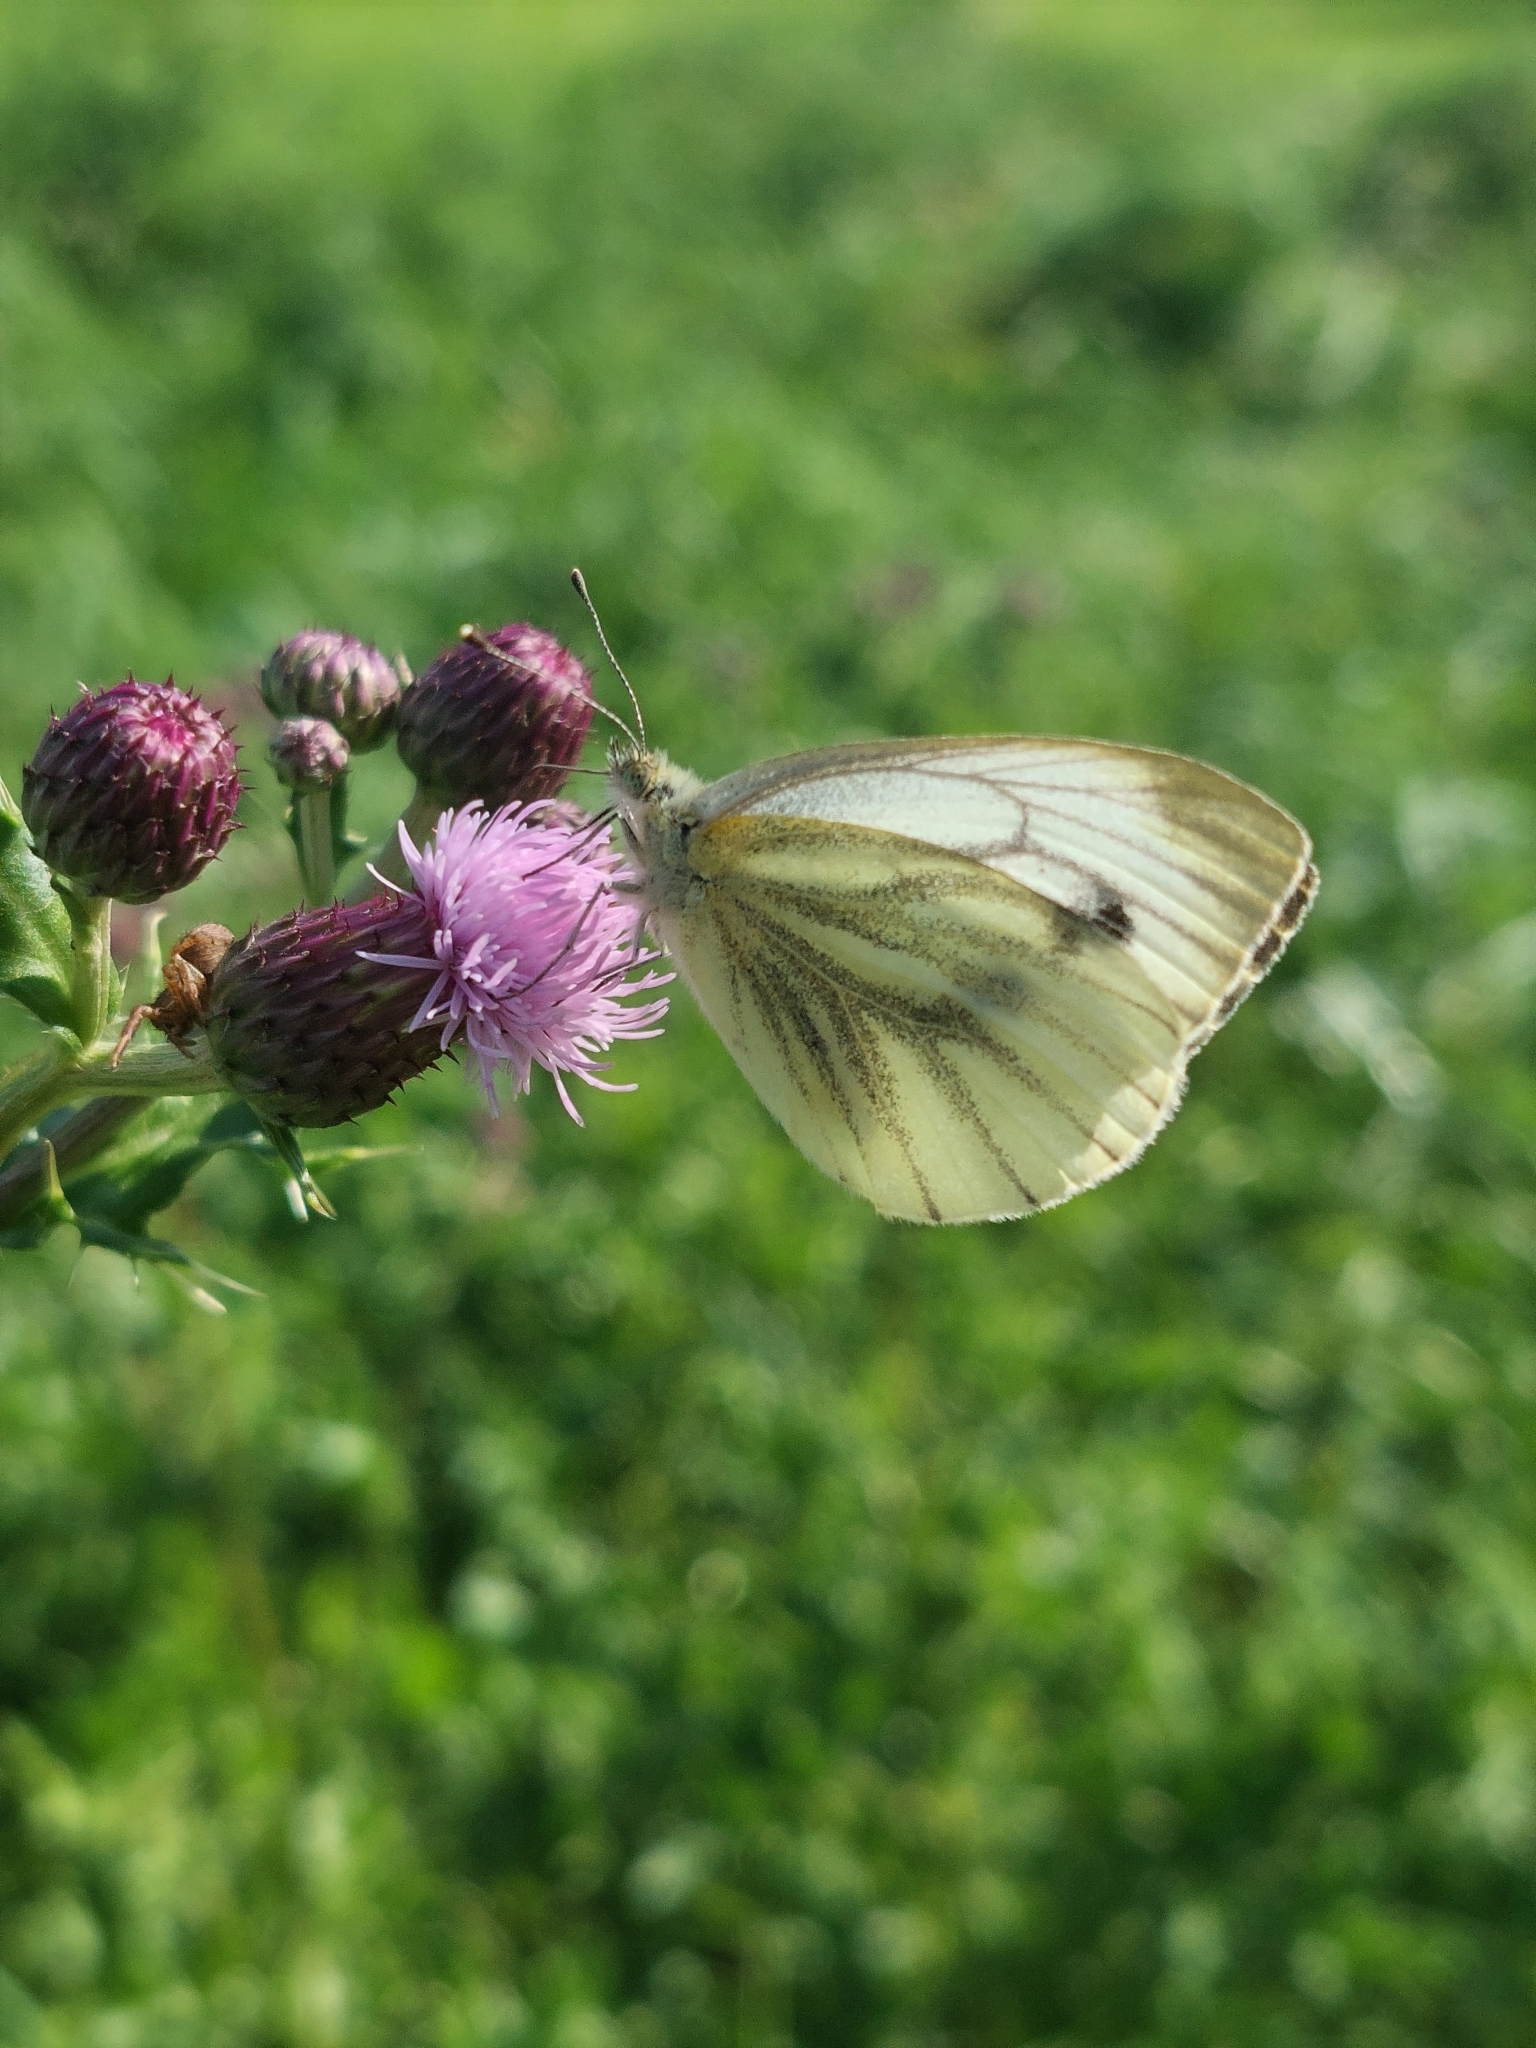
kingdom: Animalia
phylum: Arthropoda
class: Insecta
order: Lepidoptera
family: Pieridae
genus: Pieris
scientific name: Pieris napi
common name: Green-veined white
